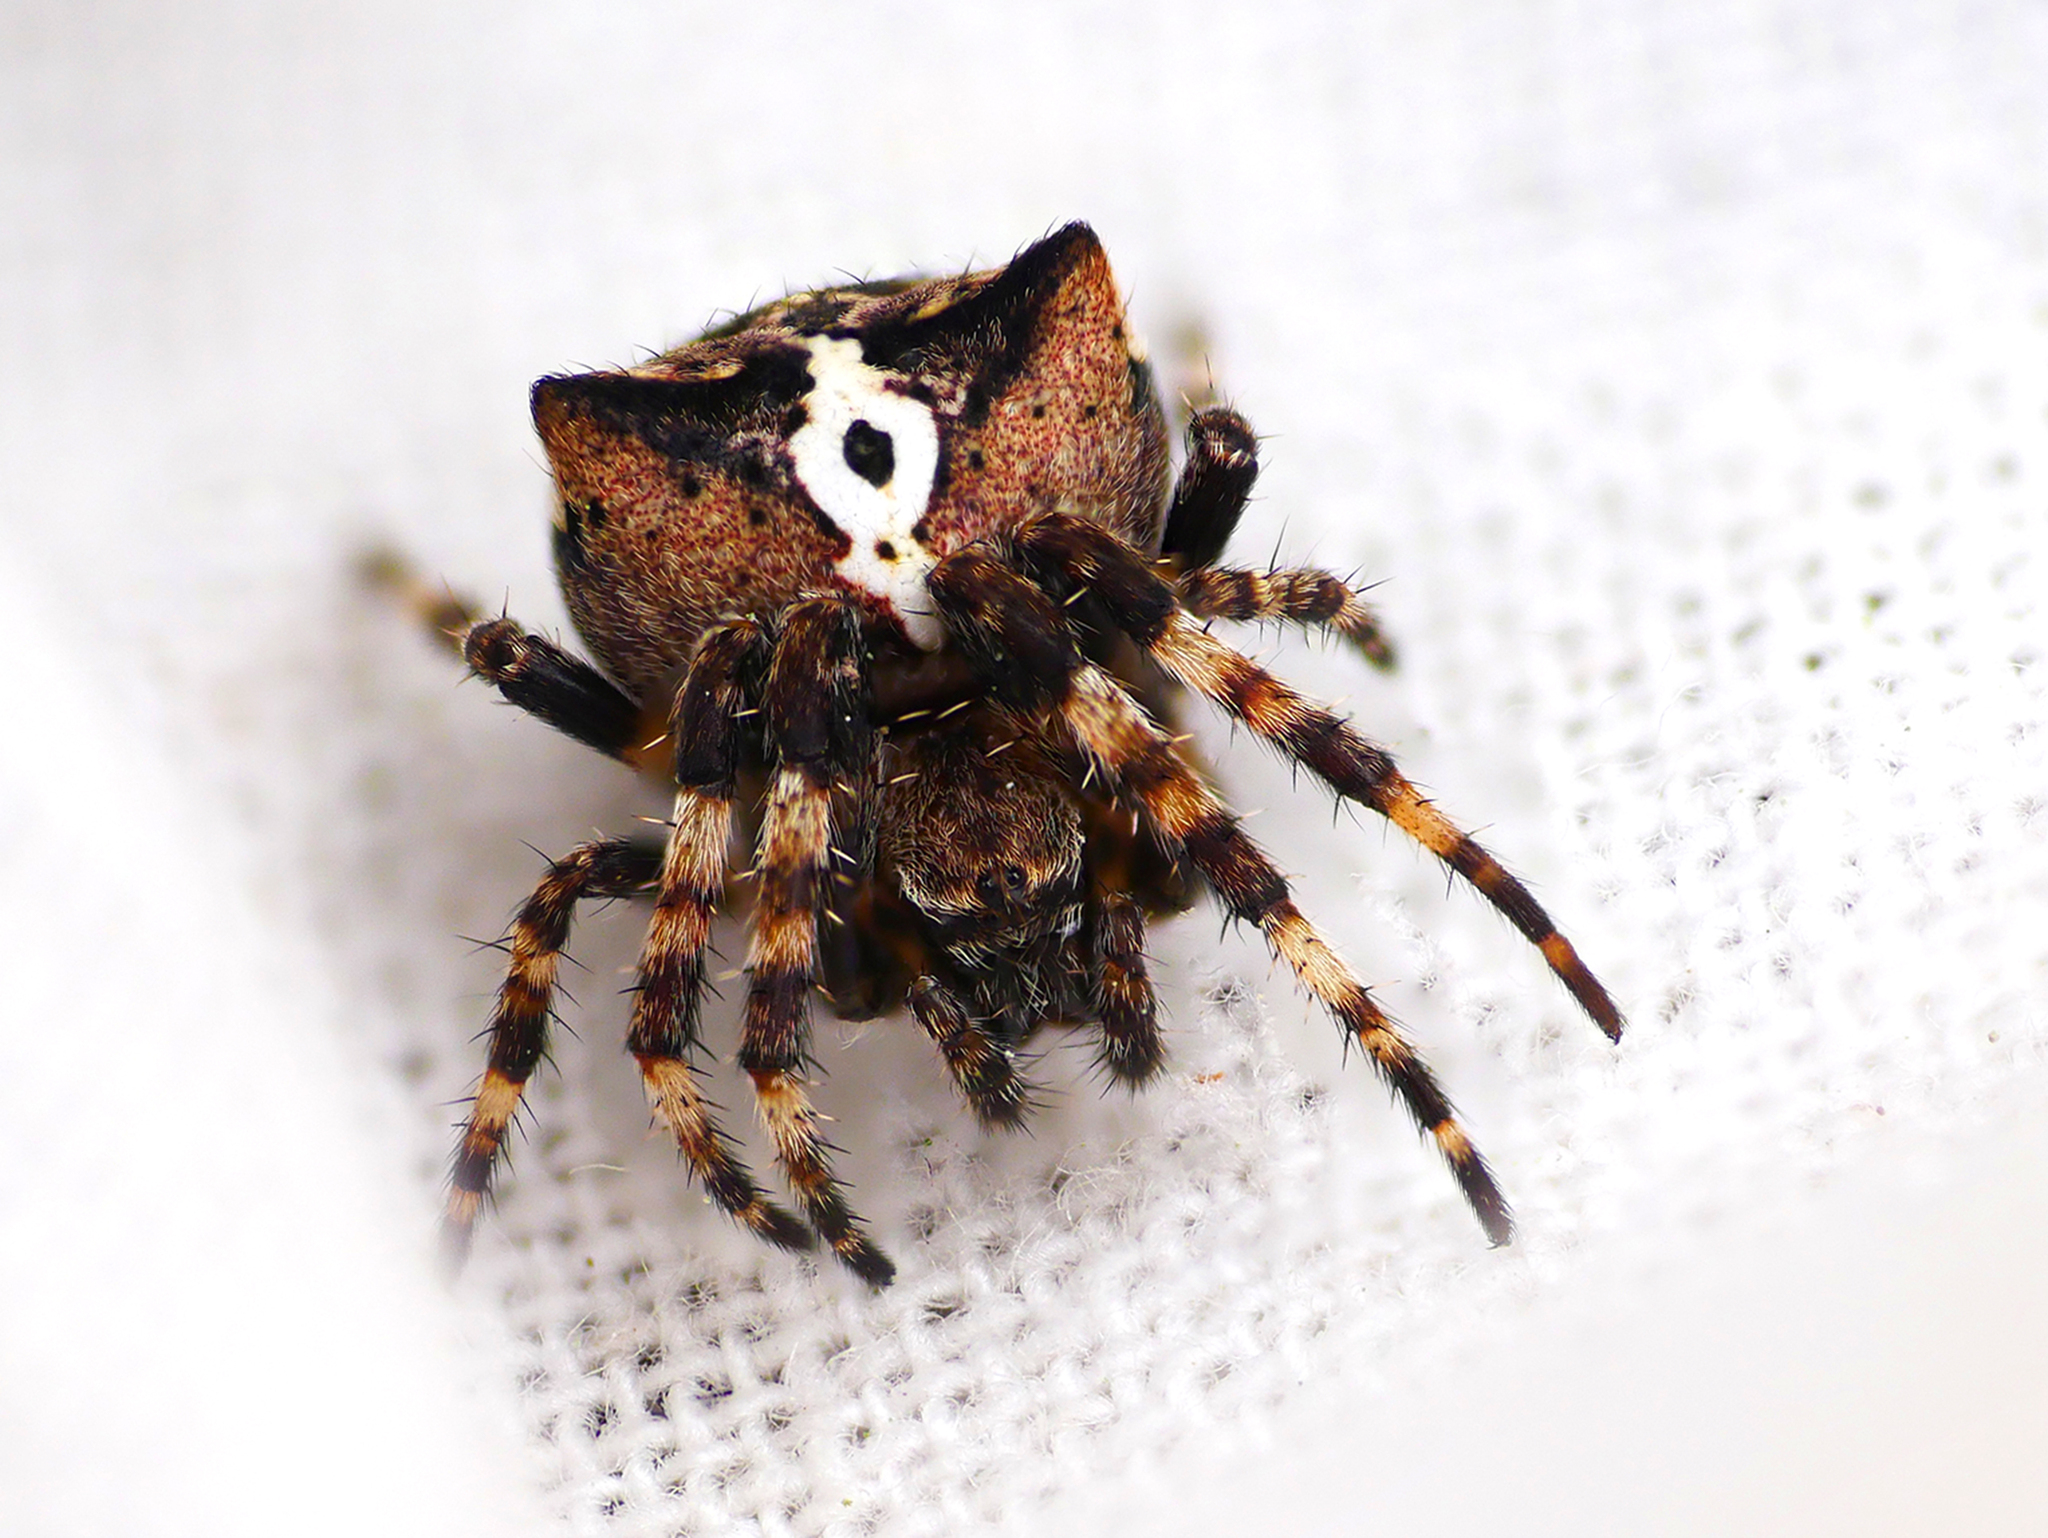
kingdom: Animalia
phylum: Arthropoda
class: Arachnida
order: Araneae
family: Araneidae
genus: Araneus
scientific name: Araneus angulatus
